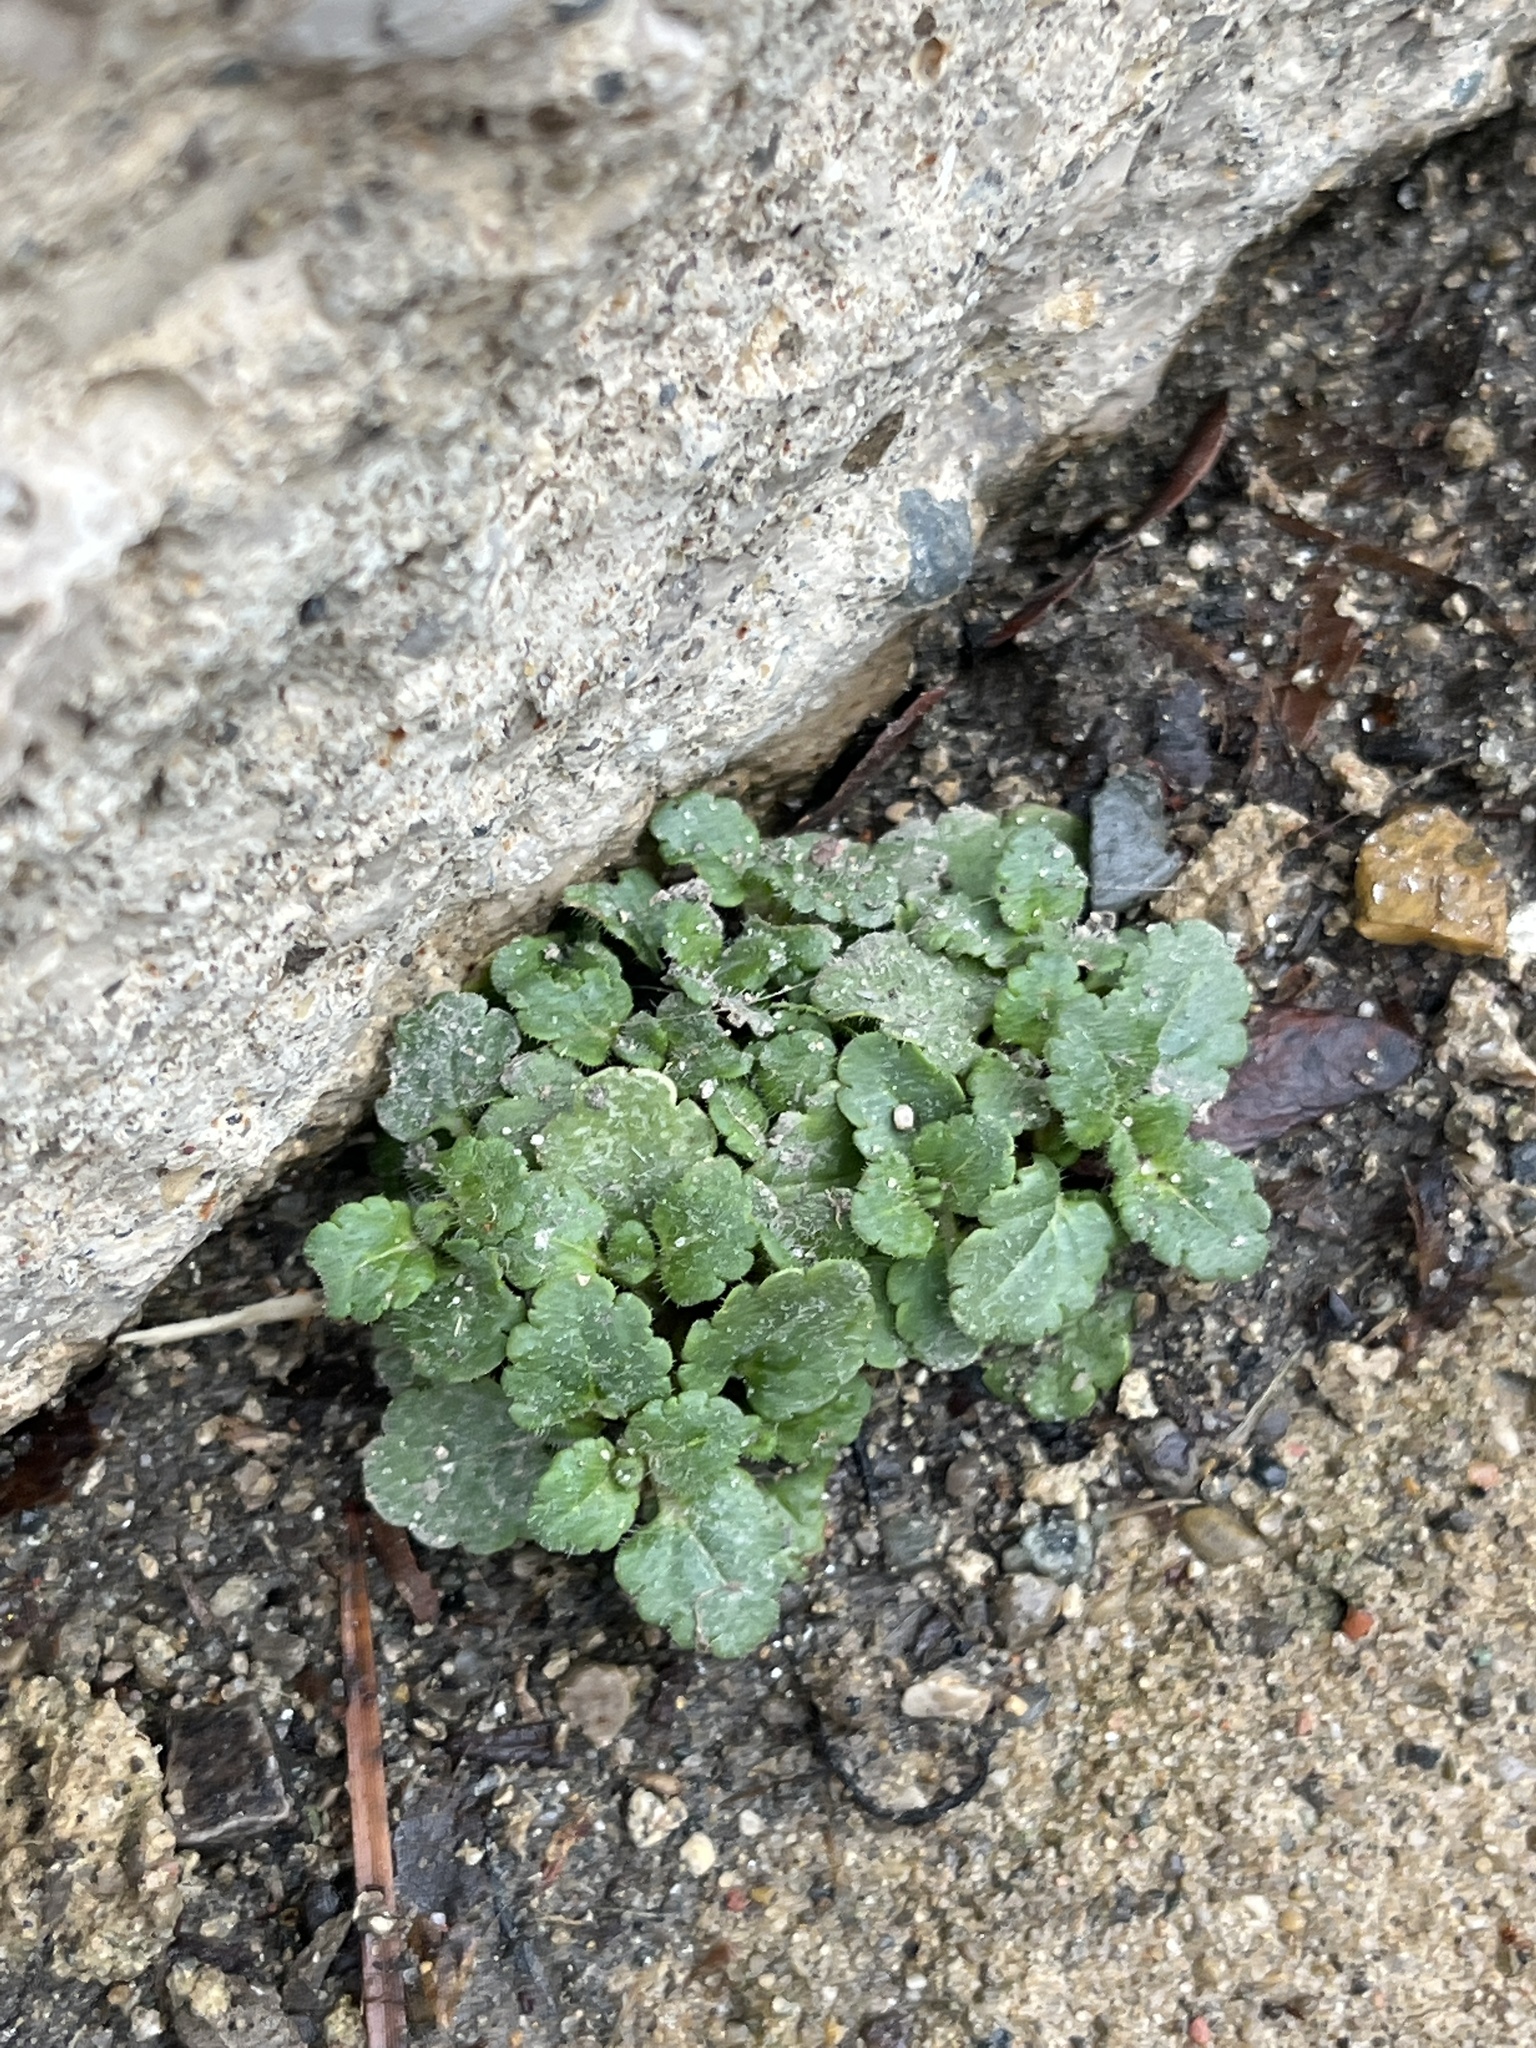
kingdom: Plantae
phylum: Tracheophyta
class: Magnoliopsida
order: Lamiales
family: Plantaginaceae
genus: Veronica
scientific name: Veronica arvensis
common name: Corn speedwell
